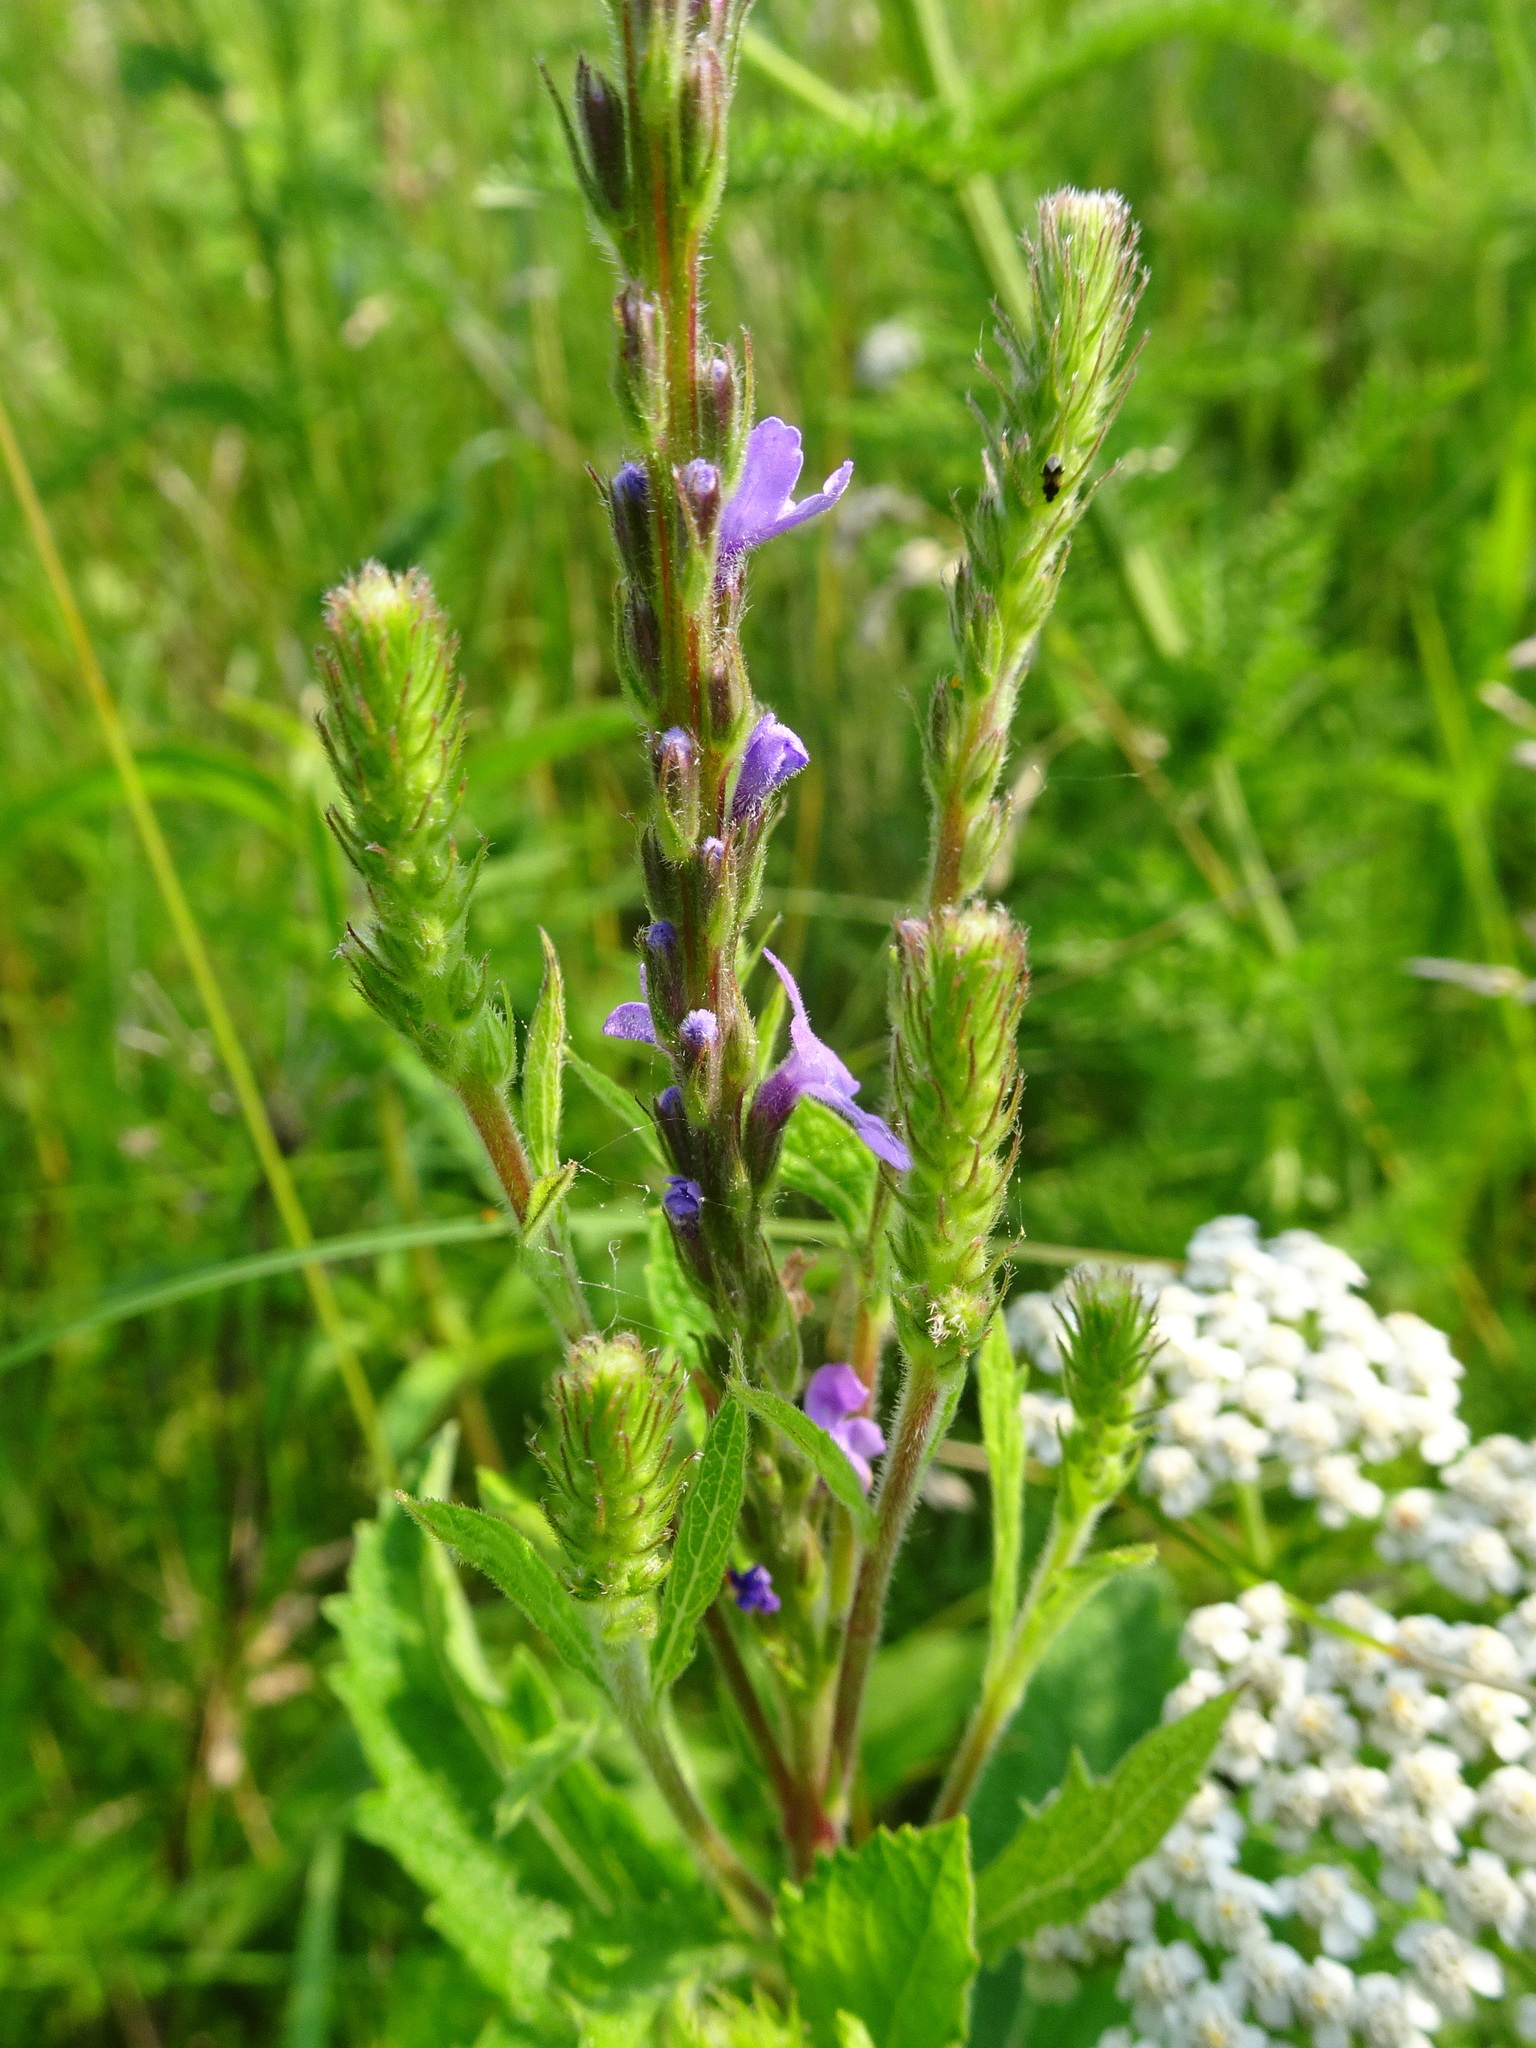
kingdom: Plantae
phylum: Tracheophyta
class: Magnoliopsida
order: Lamiales
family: Verbenaceae
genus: Verbena
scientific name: Verbena stricta
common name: Hoary vervain
